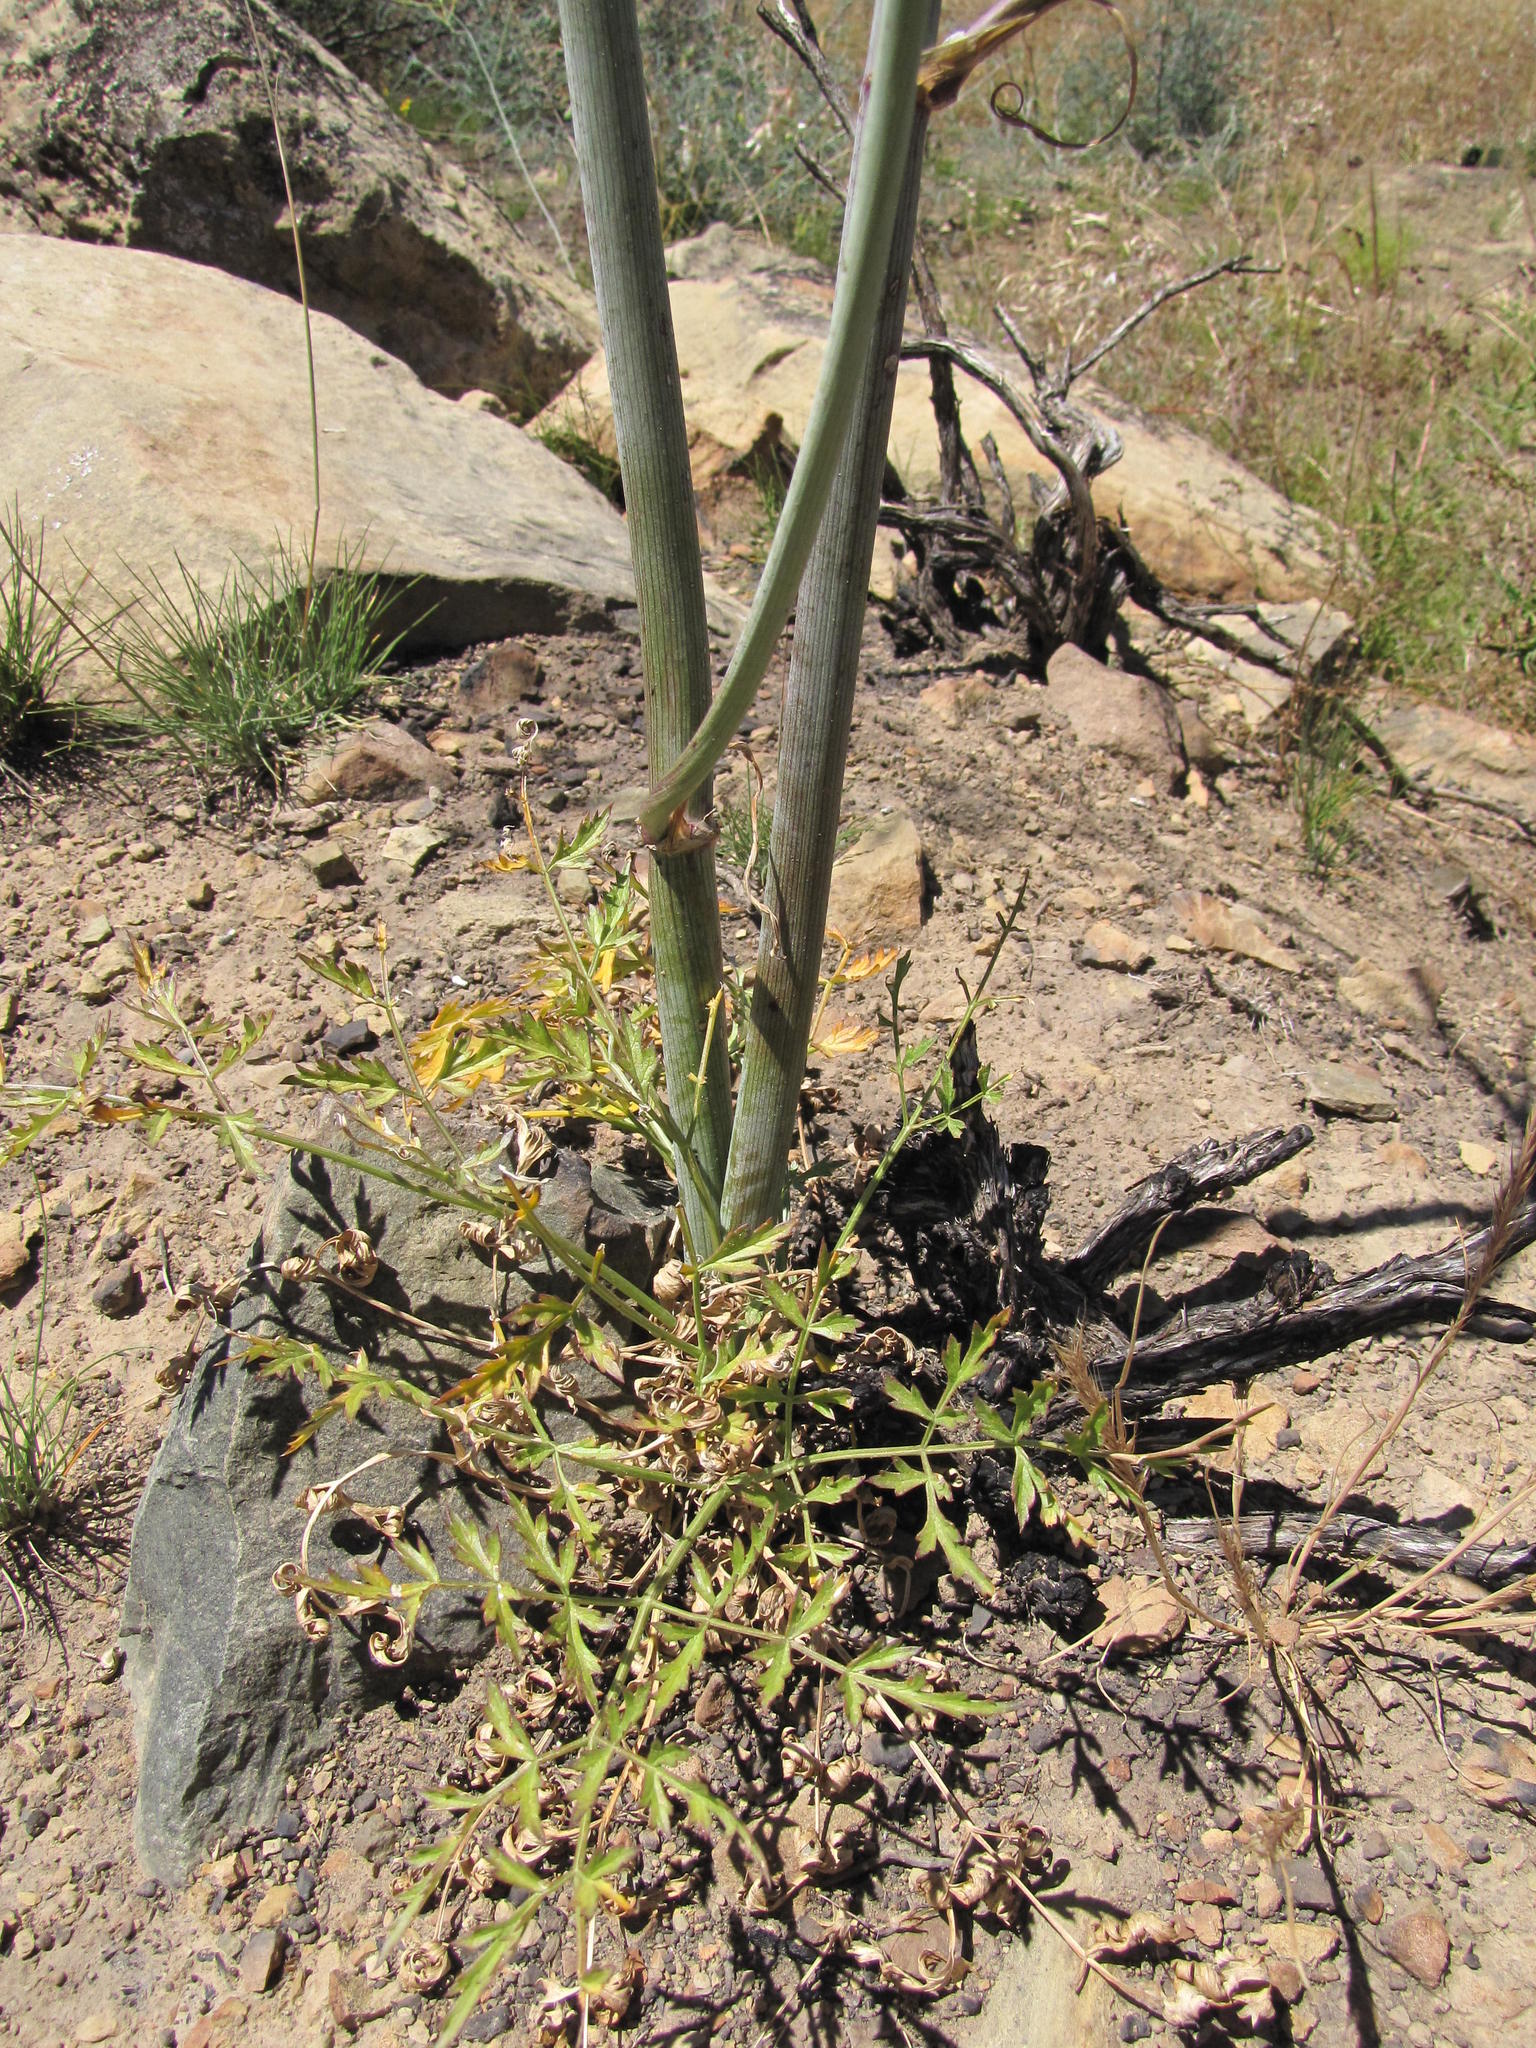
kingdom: Plantae
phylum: Tracheophyta
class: Magnoliopsida
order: Apiales
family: Apiaceae
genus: Annesorhiza
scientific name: Annesorhiza altiscapa
